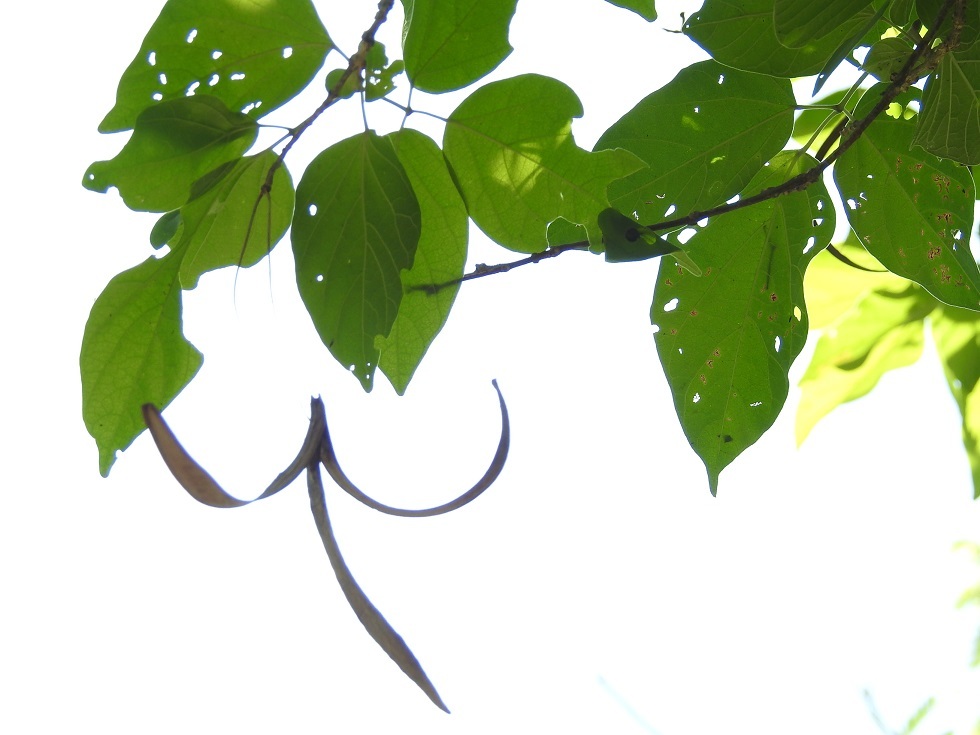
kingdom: Plantae
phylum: Tracheophyta
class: Magnoliopsida
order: Lamiales
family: Bignoniaceae
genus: Handroanthus
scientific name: Handroanthus impetiginosum
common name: Pink trumpet tree
